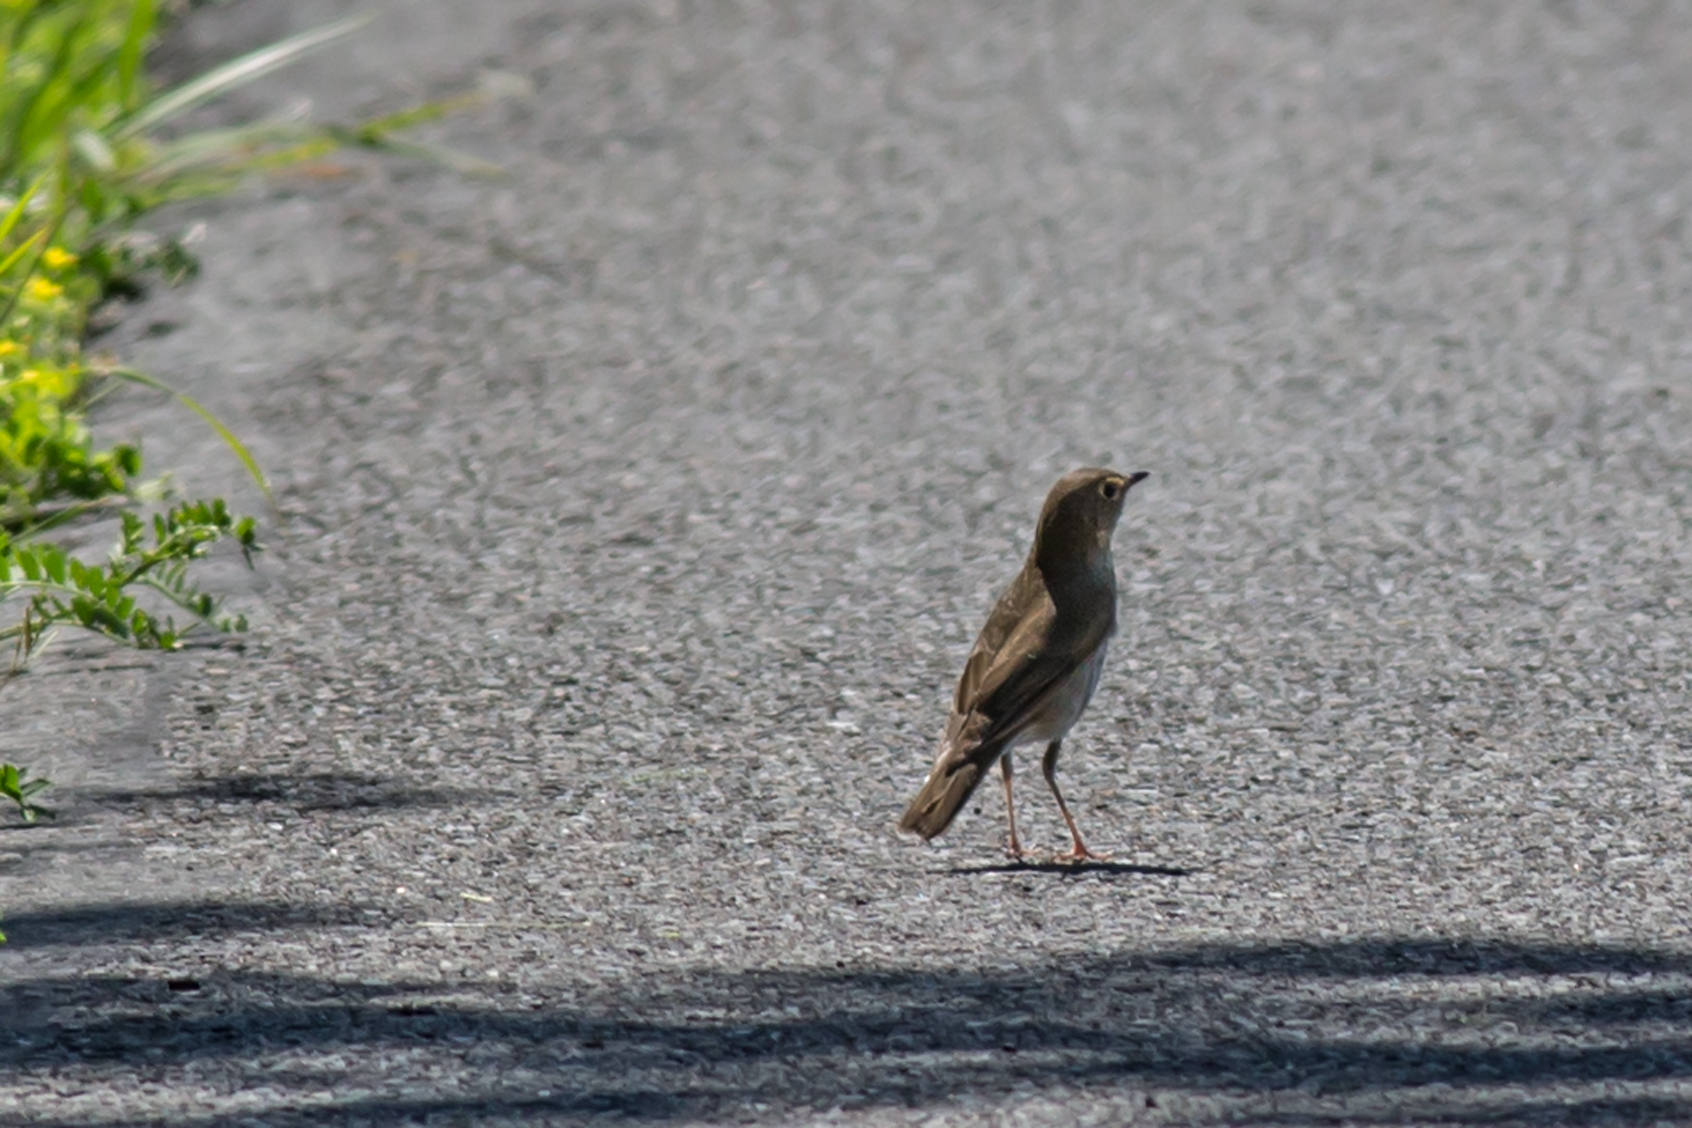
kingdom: Animalia
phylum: Chordata
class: Aves
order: Passeriformes
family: Turdidae
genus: Catharus
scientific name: Catharus ustulatus
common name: Swainson's thrush
